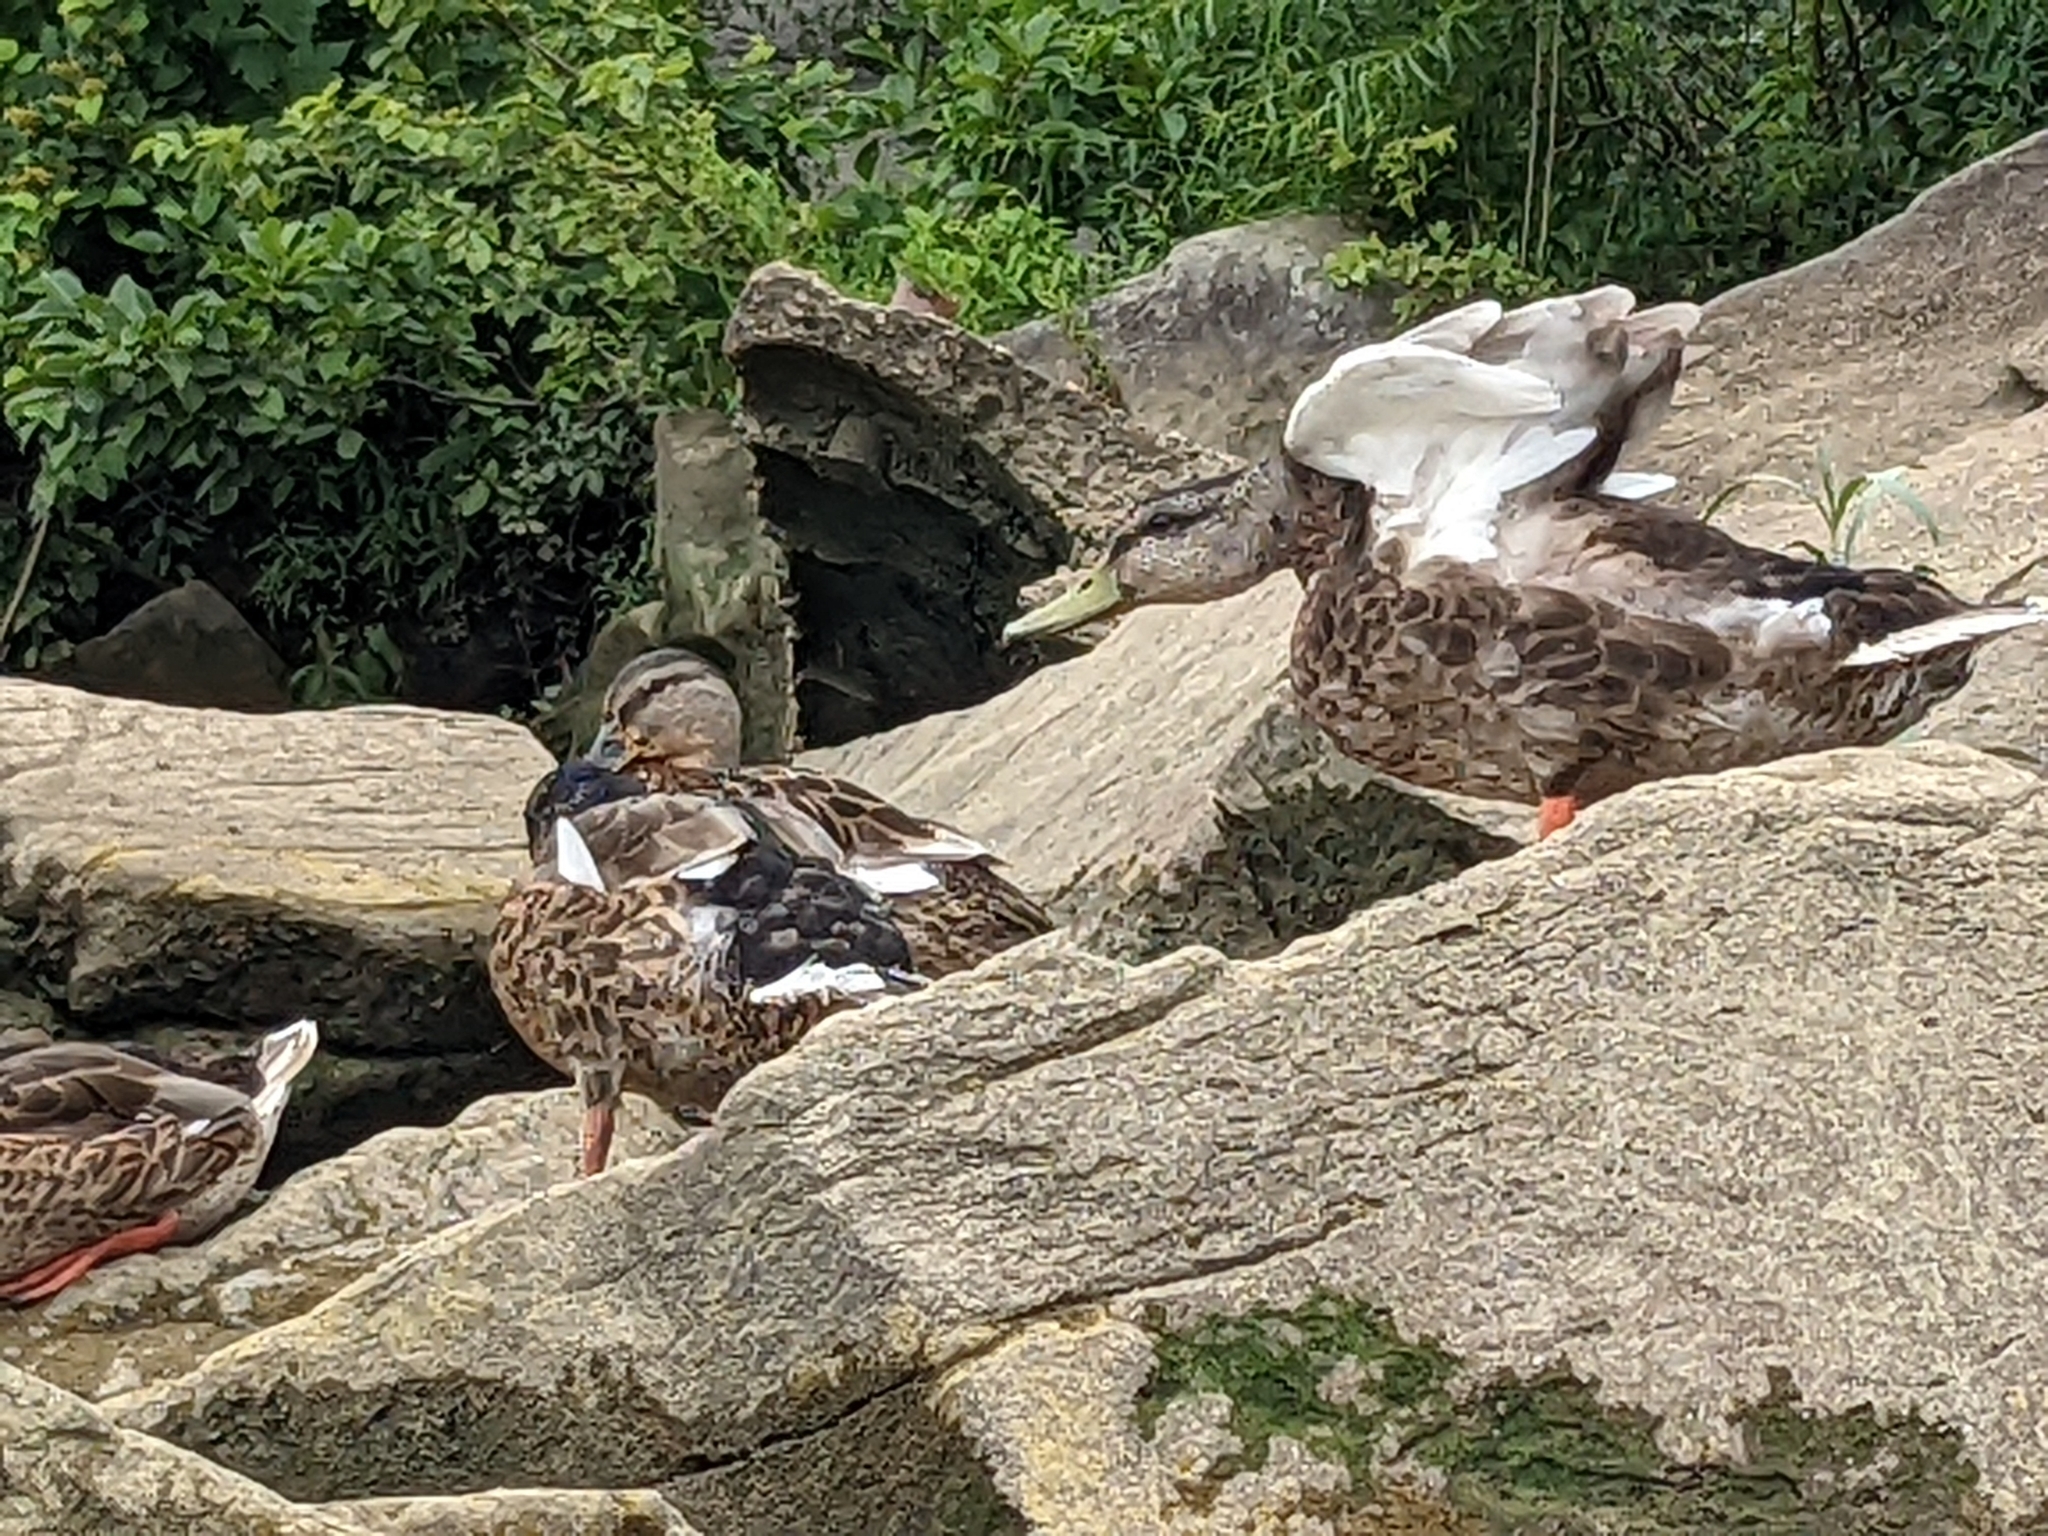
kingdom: Animalia
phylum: Chordata
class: Aves
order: Anseriformes
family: Anatidae
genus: Anas
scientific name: Anas platyrhynchos
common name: Mallard
